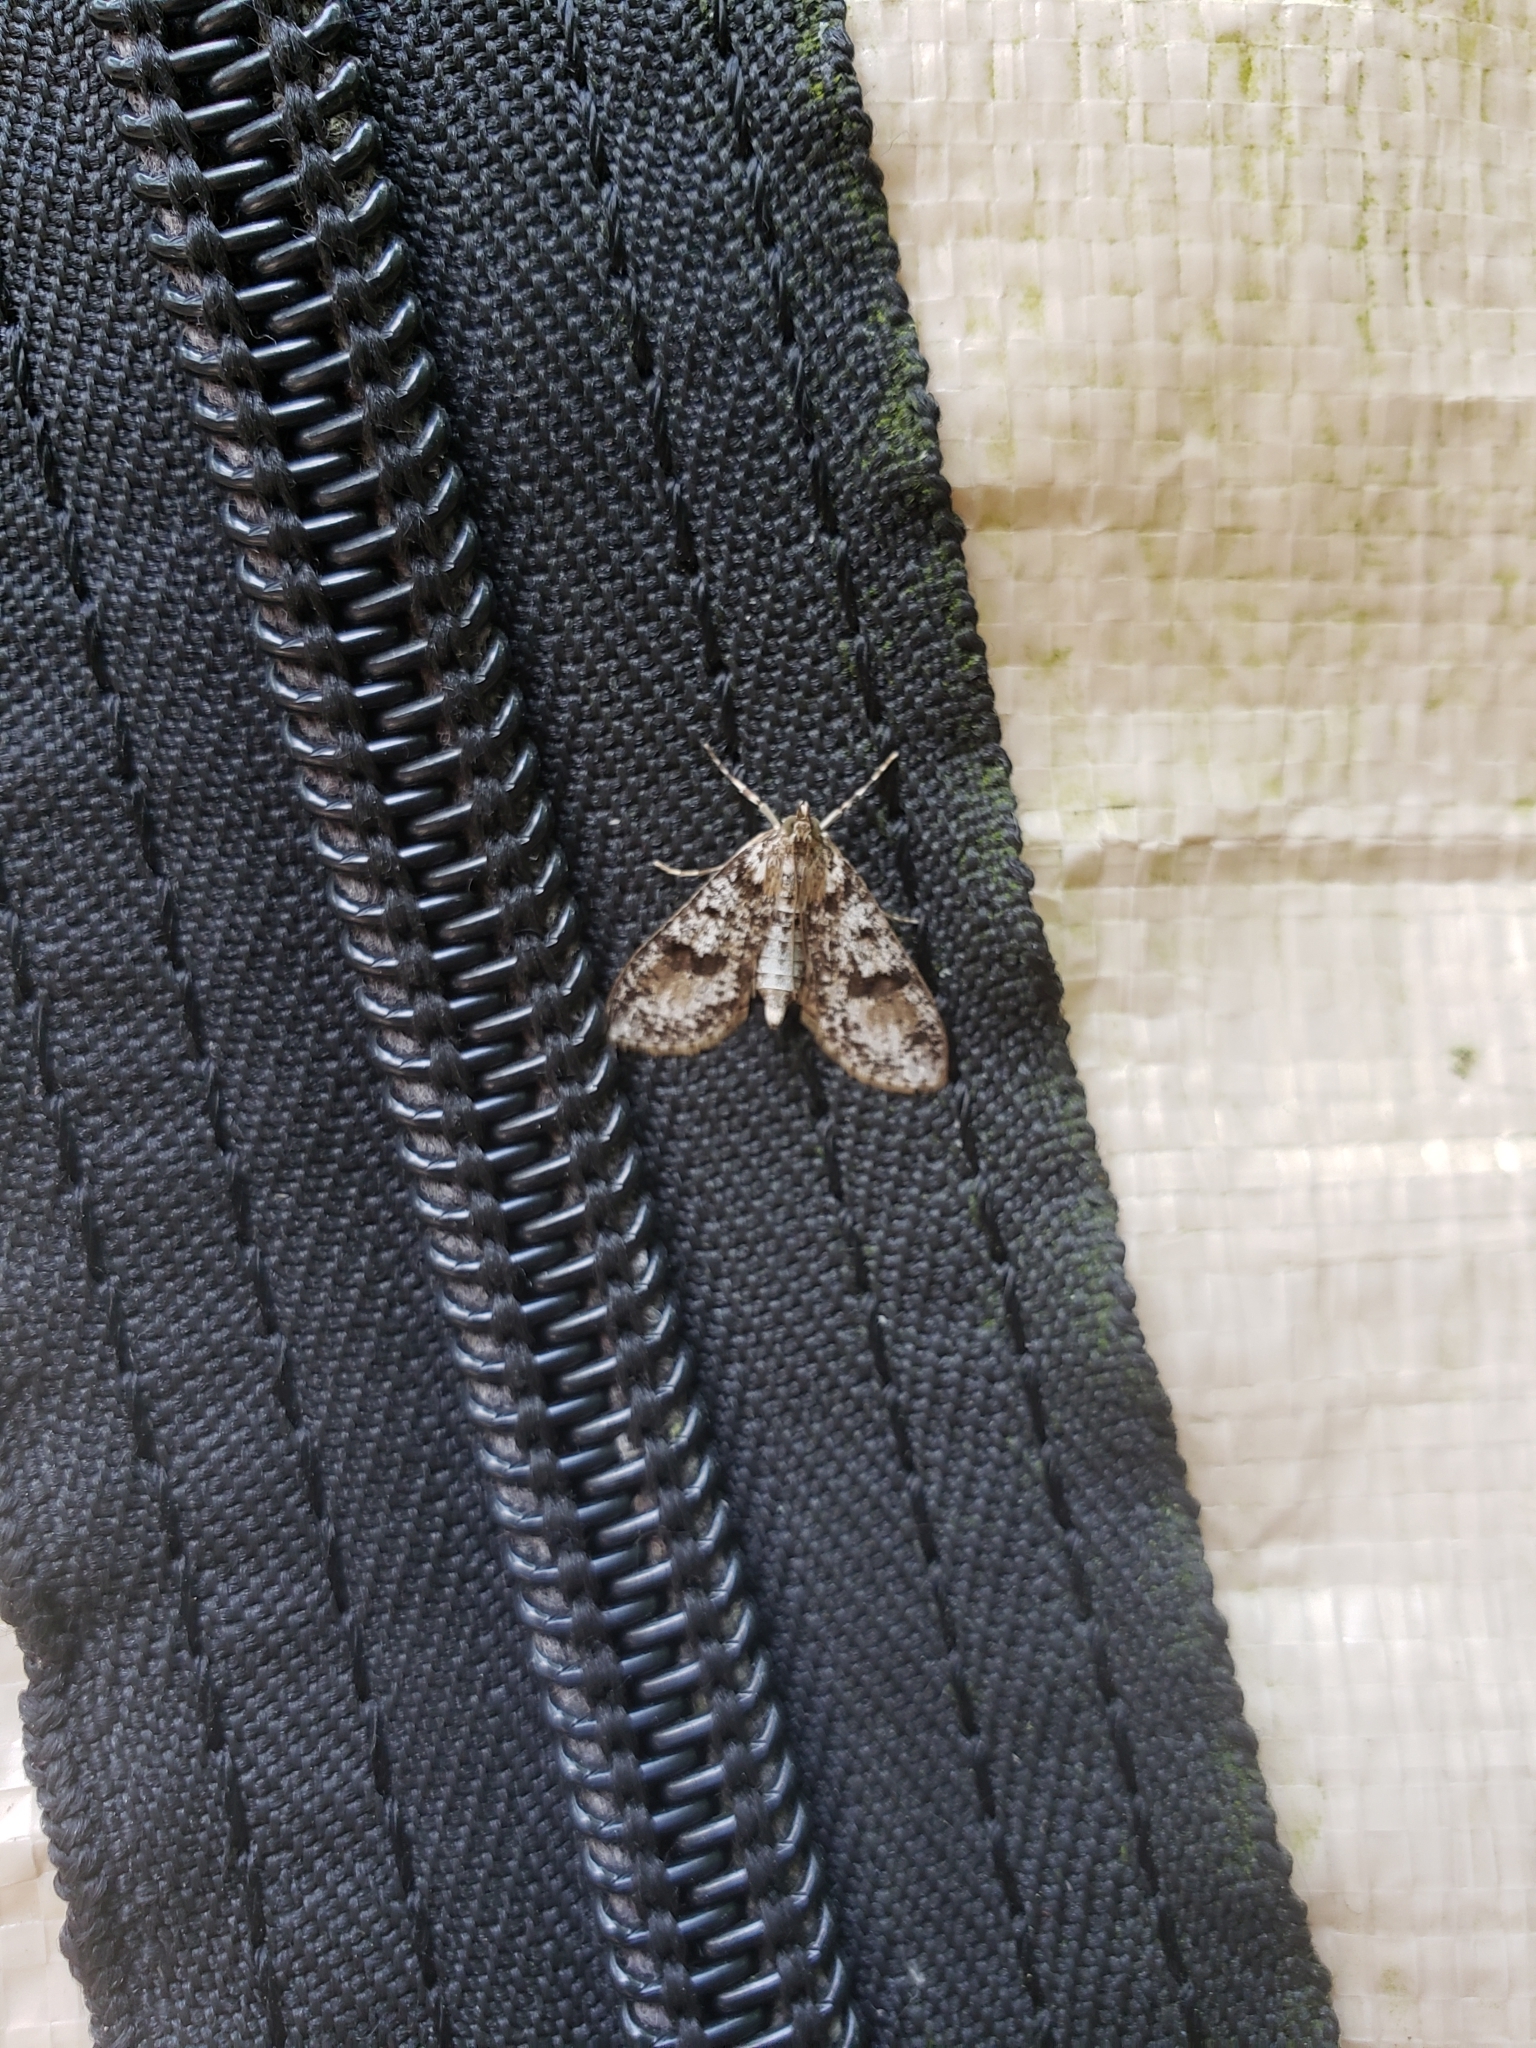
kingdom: Animalia
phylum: Arthropoda
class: Insecta
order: Lepidoptera
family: Crambidae
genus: Palpita
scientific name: Palpita magniferalis
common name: Splendid palpita moth
